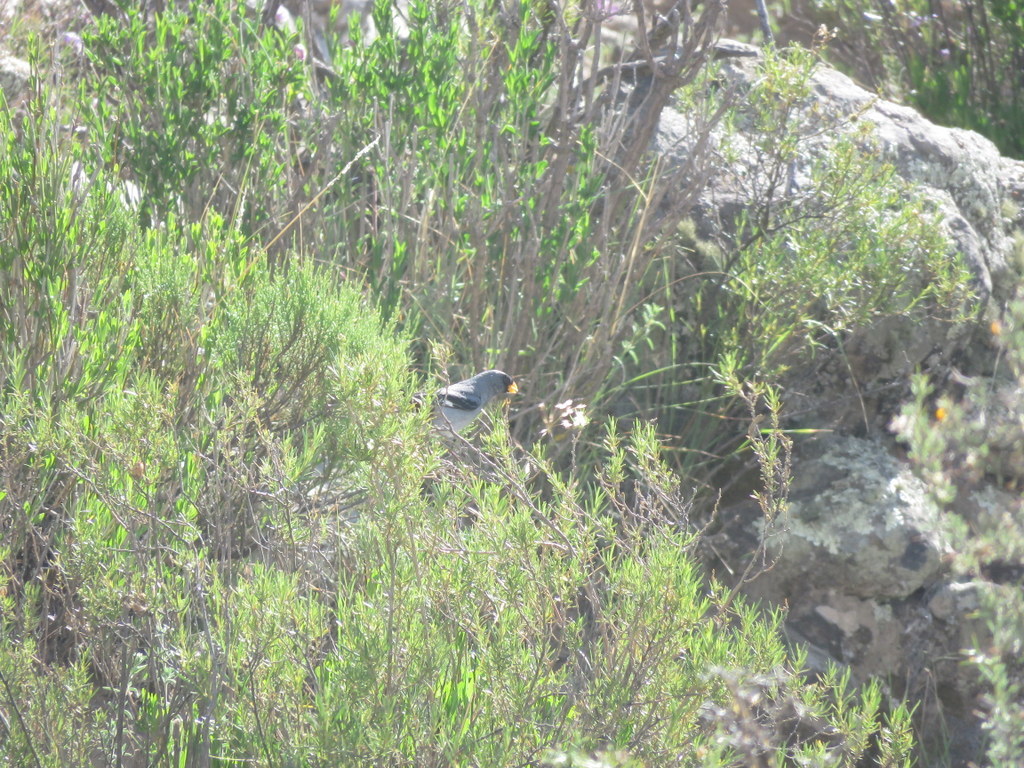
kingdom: Animalia
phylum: Chordata
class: Aves
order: Passeriformes
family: Thraupidae
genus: Catamenia
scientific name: Catamenia analis
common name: Band-tailed seedeater
